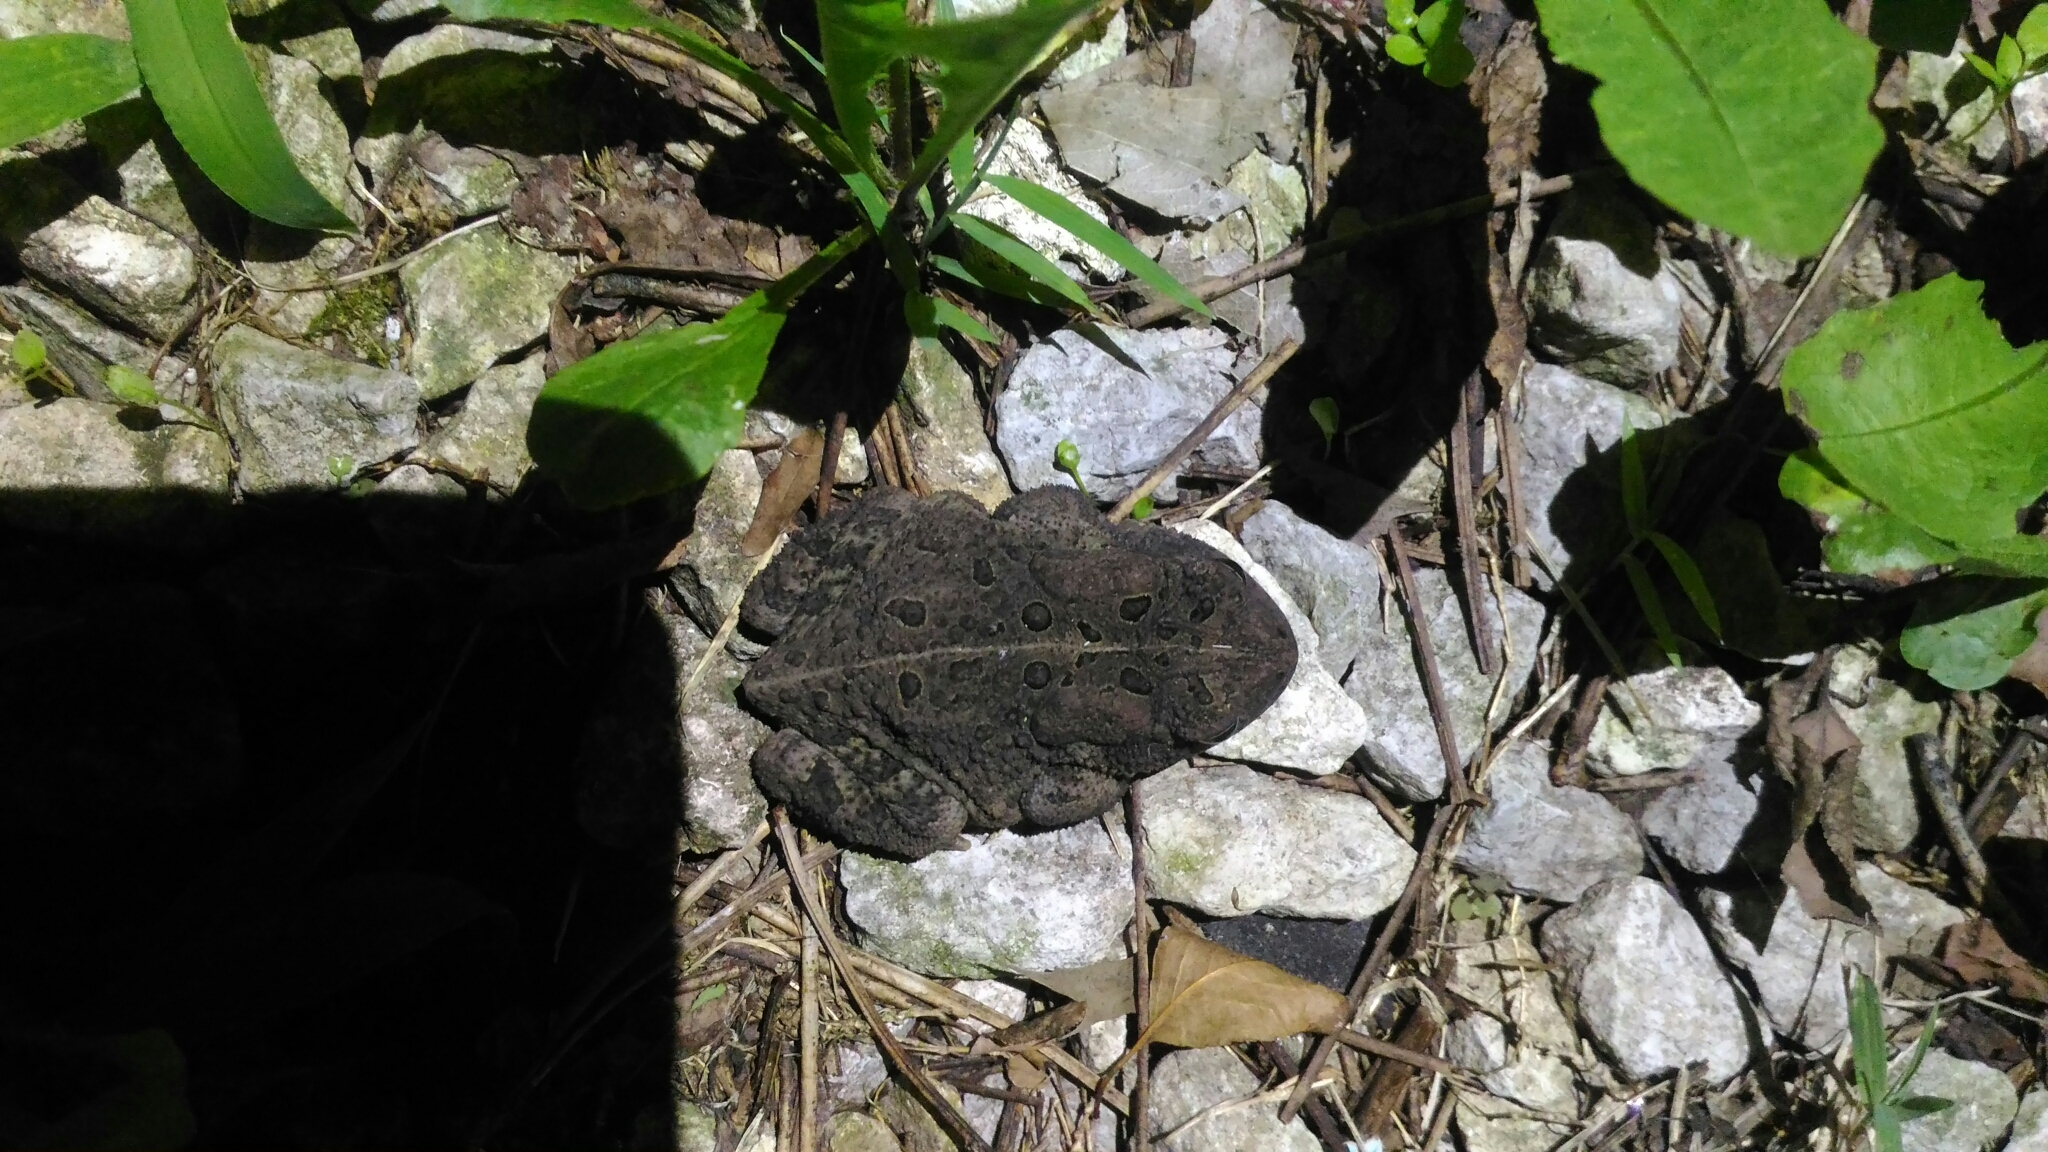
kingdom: Animalia
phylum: Chordata
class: Amphibia
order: Anura
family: Bufonidae
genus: Anaxyrus
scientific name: Anaxyrus americanus
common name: American toad
